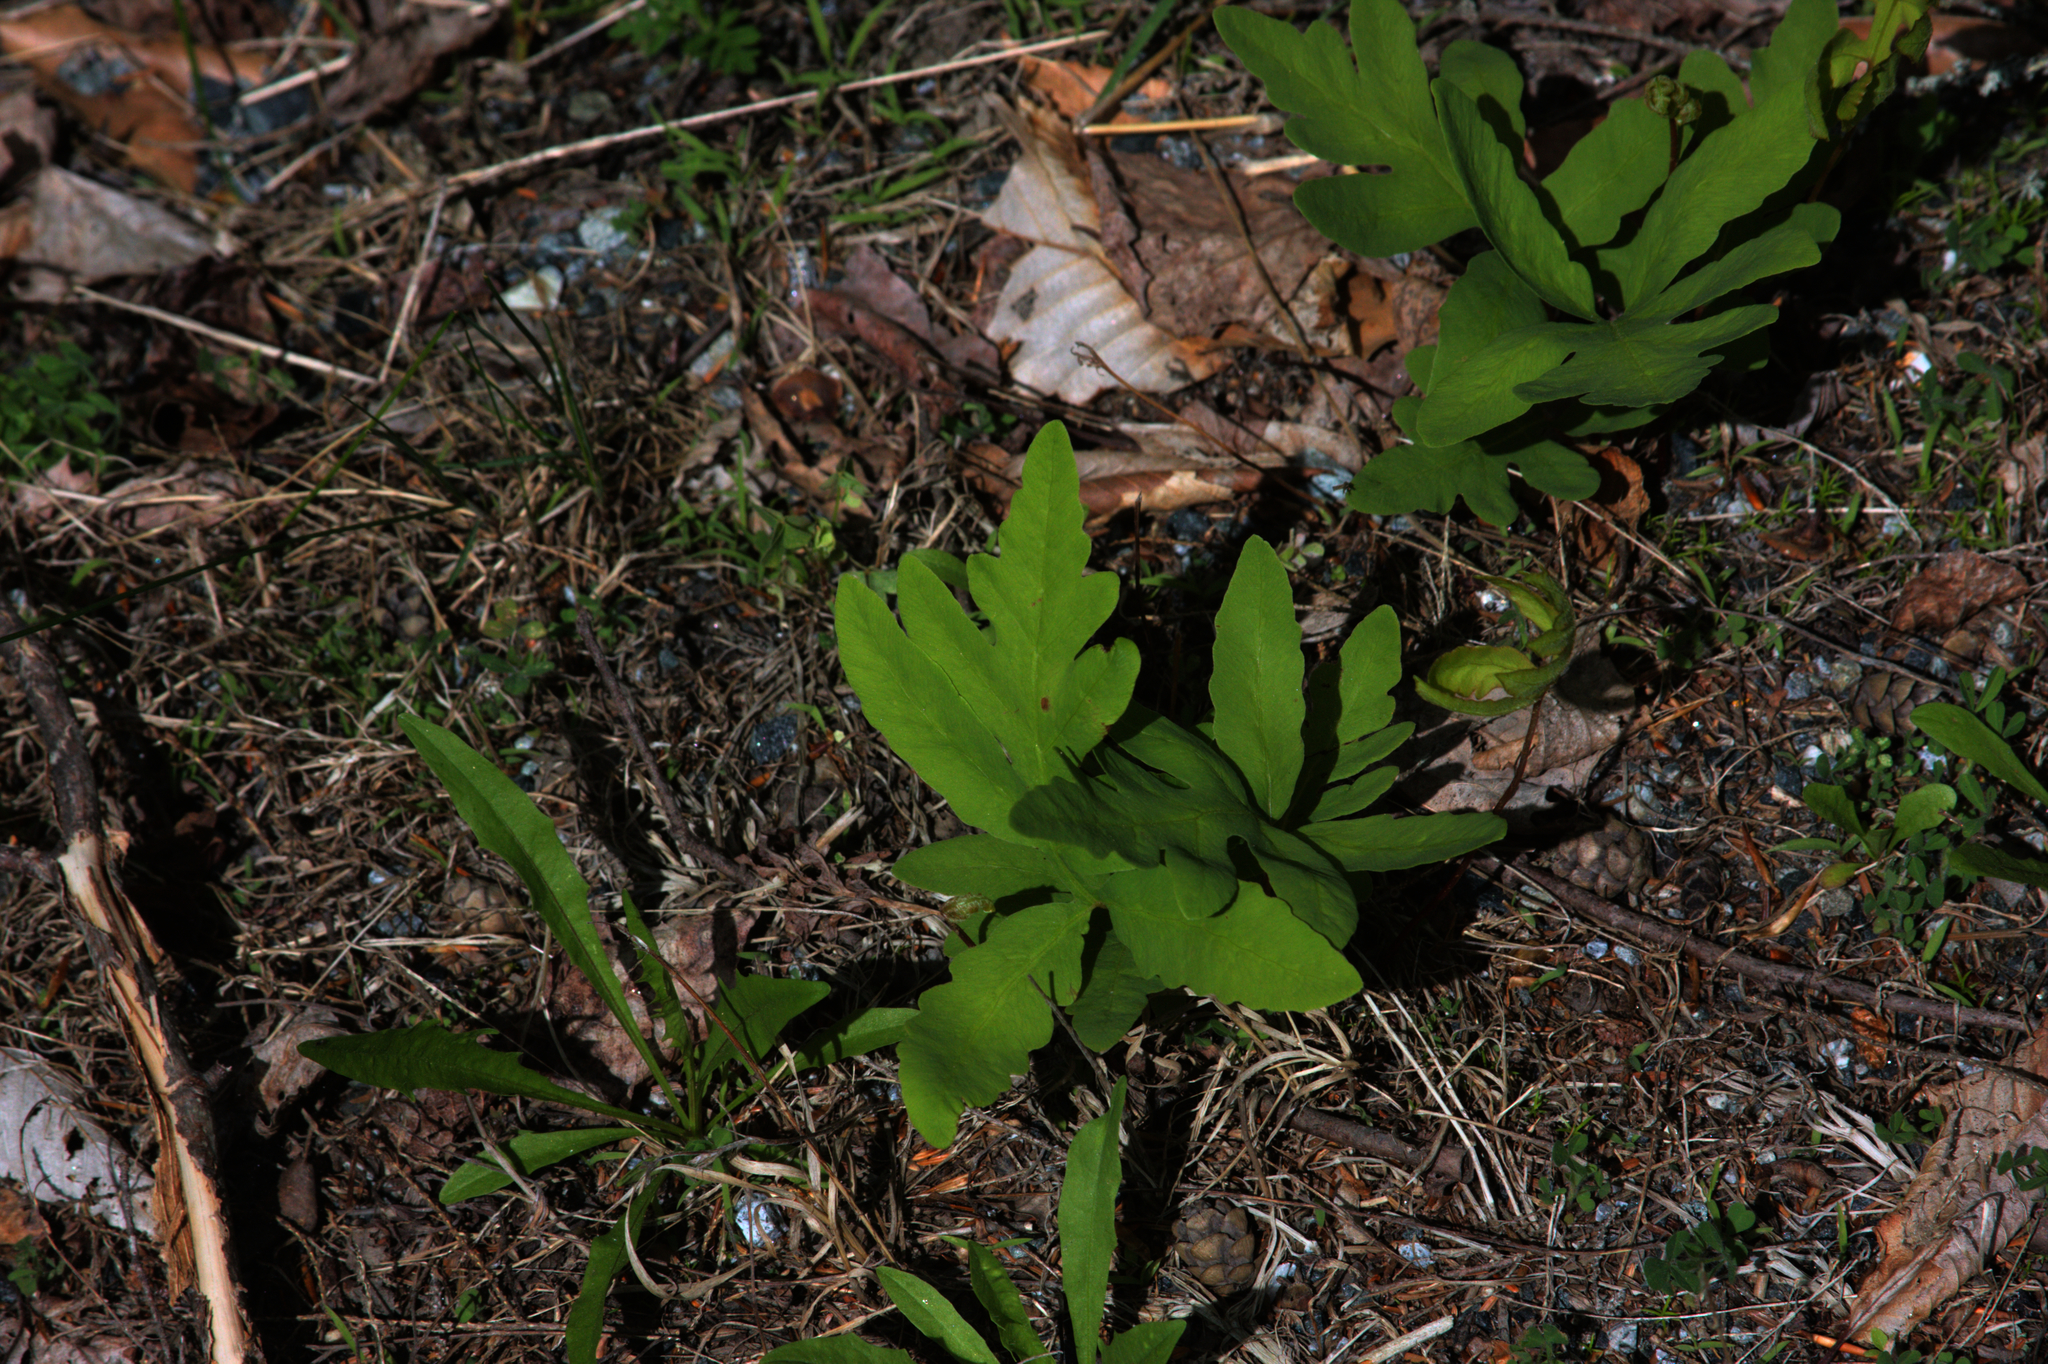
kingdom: Plantae
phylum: Tracheophyta
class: Polypodiopsida
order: Polypodiales
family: Onocleaceae
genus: Onoclea
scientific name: Onoclea sensibilis
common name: Sensitive fern
